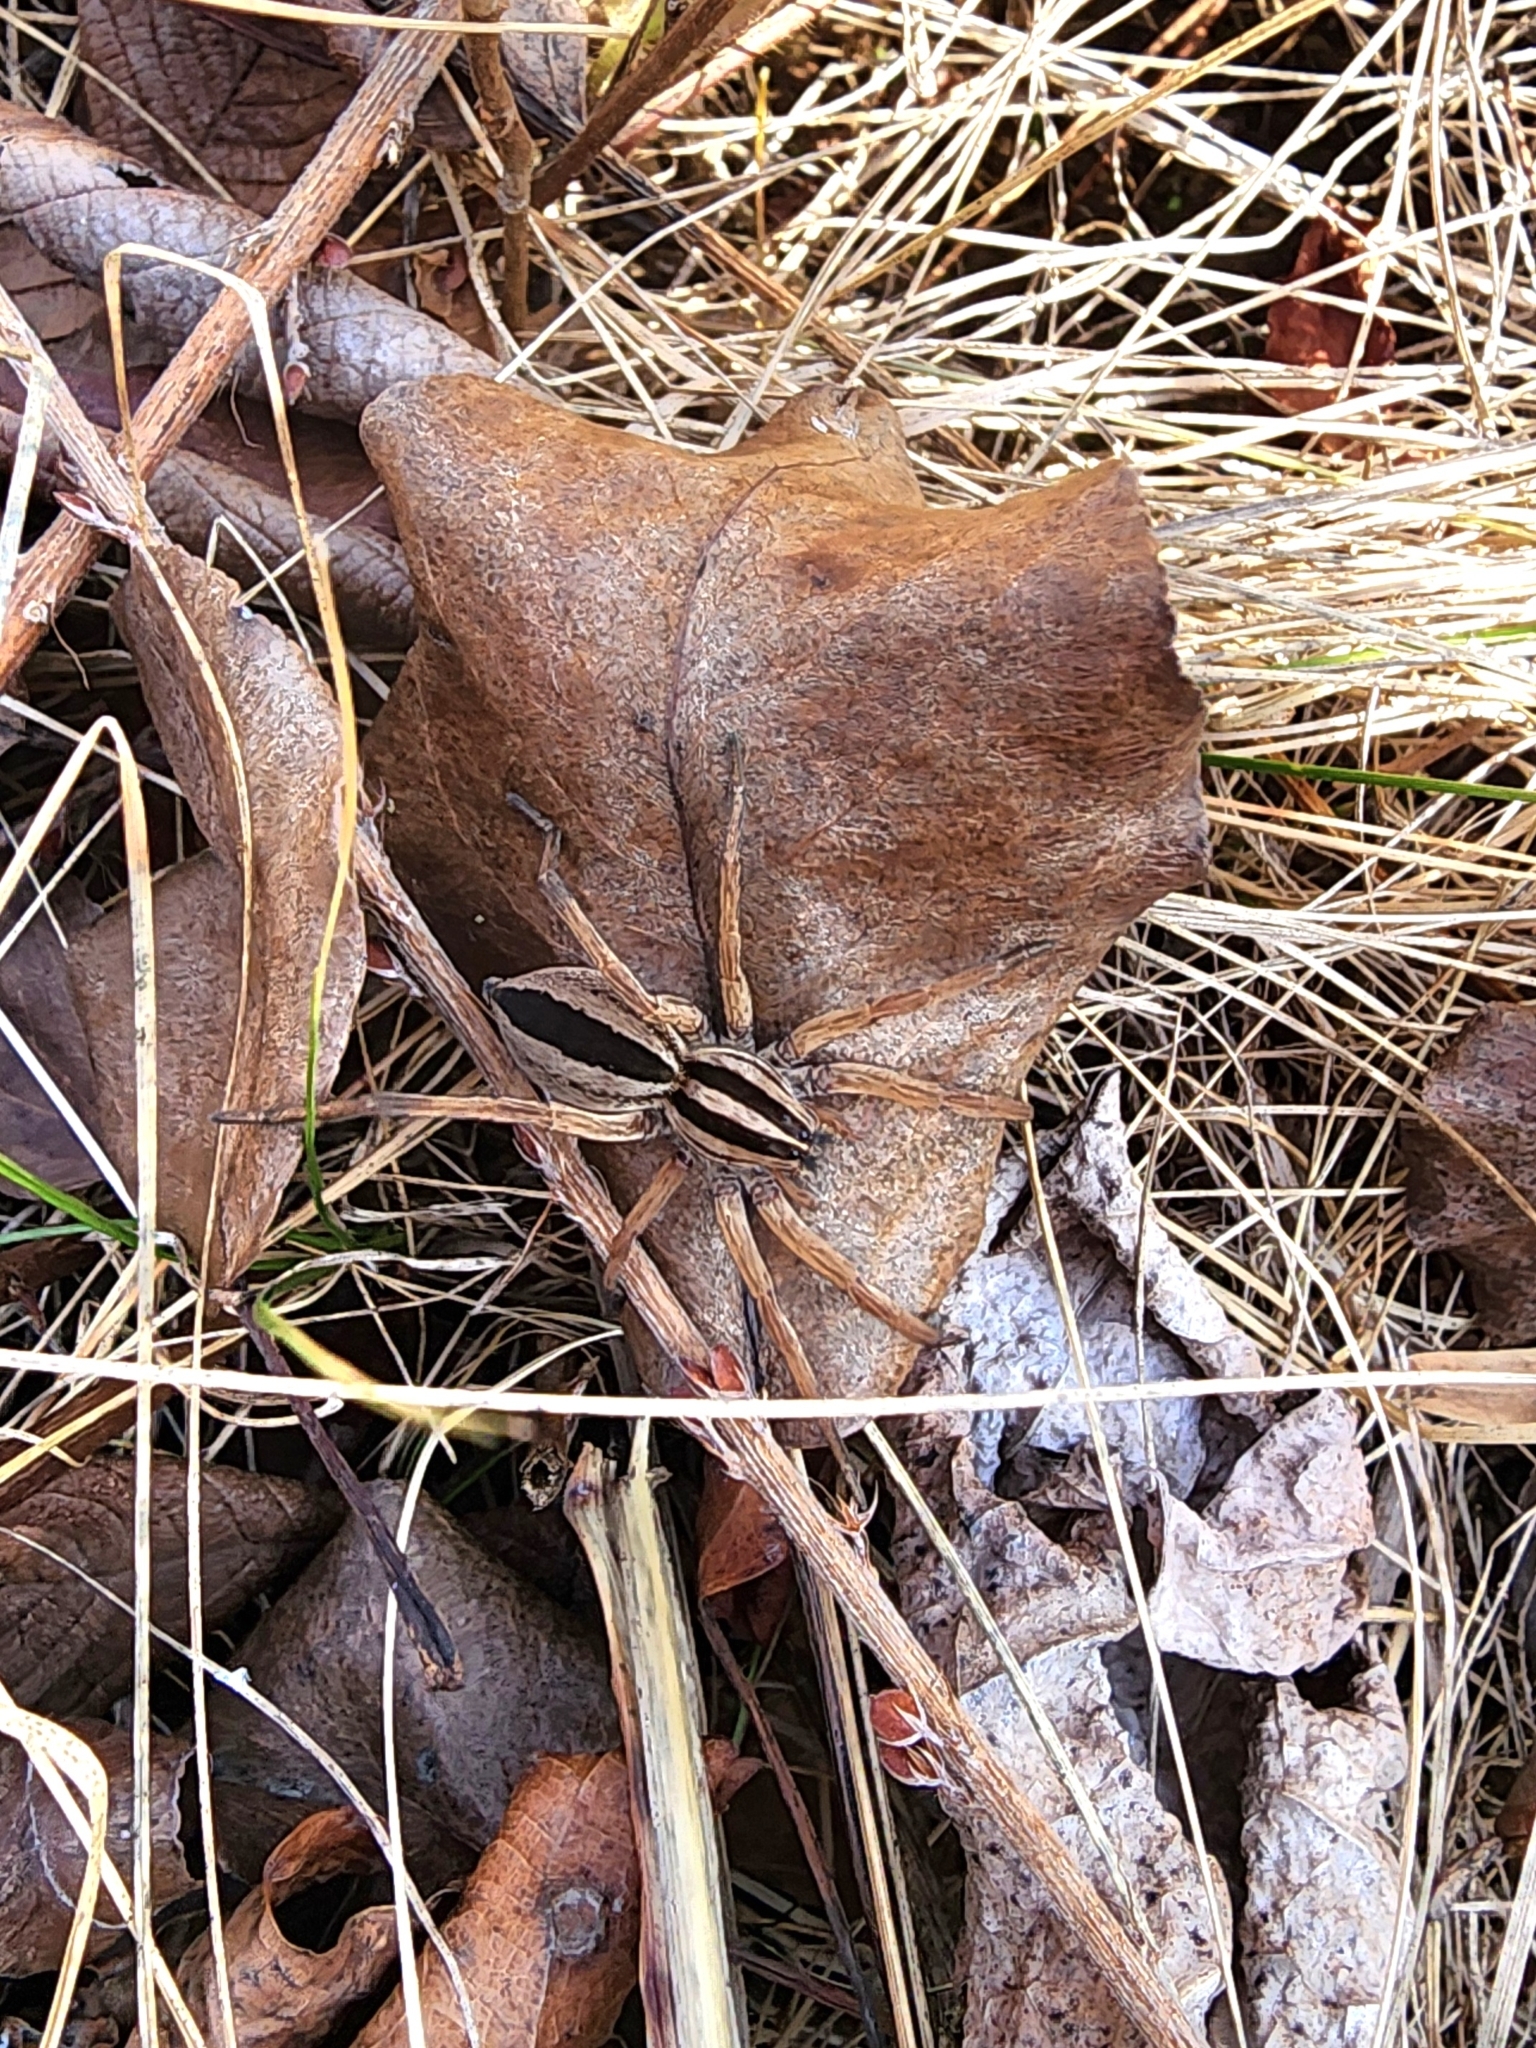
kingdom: Animalia
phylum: Arthropoda
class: Arachnida
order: Araneae
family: Lycosidae
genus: Rabidosa
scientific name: Rabidosa punctulata
